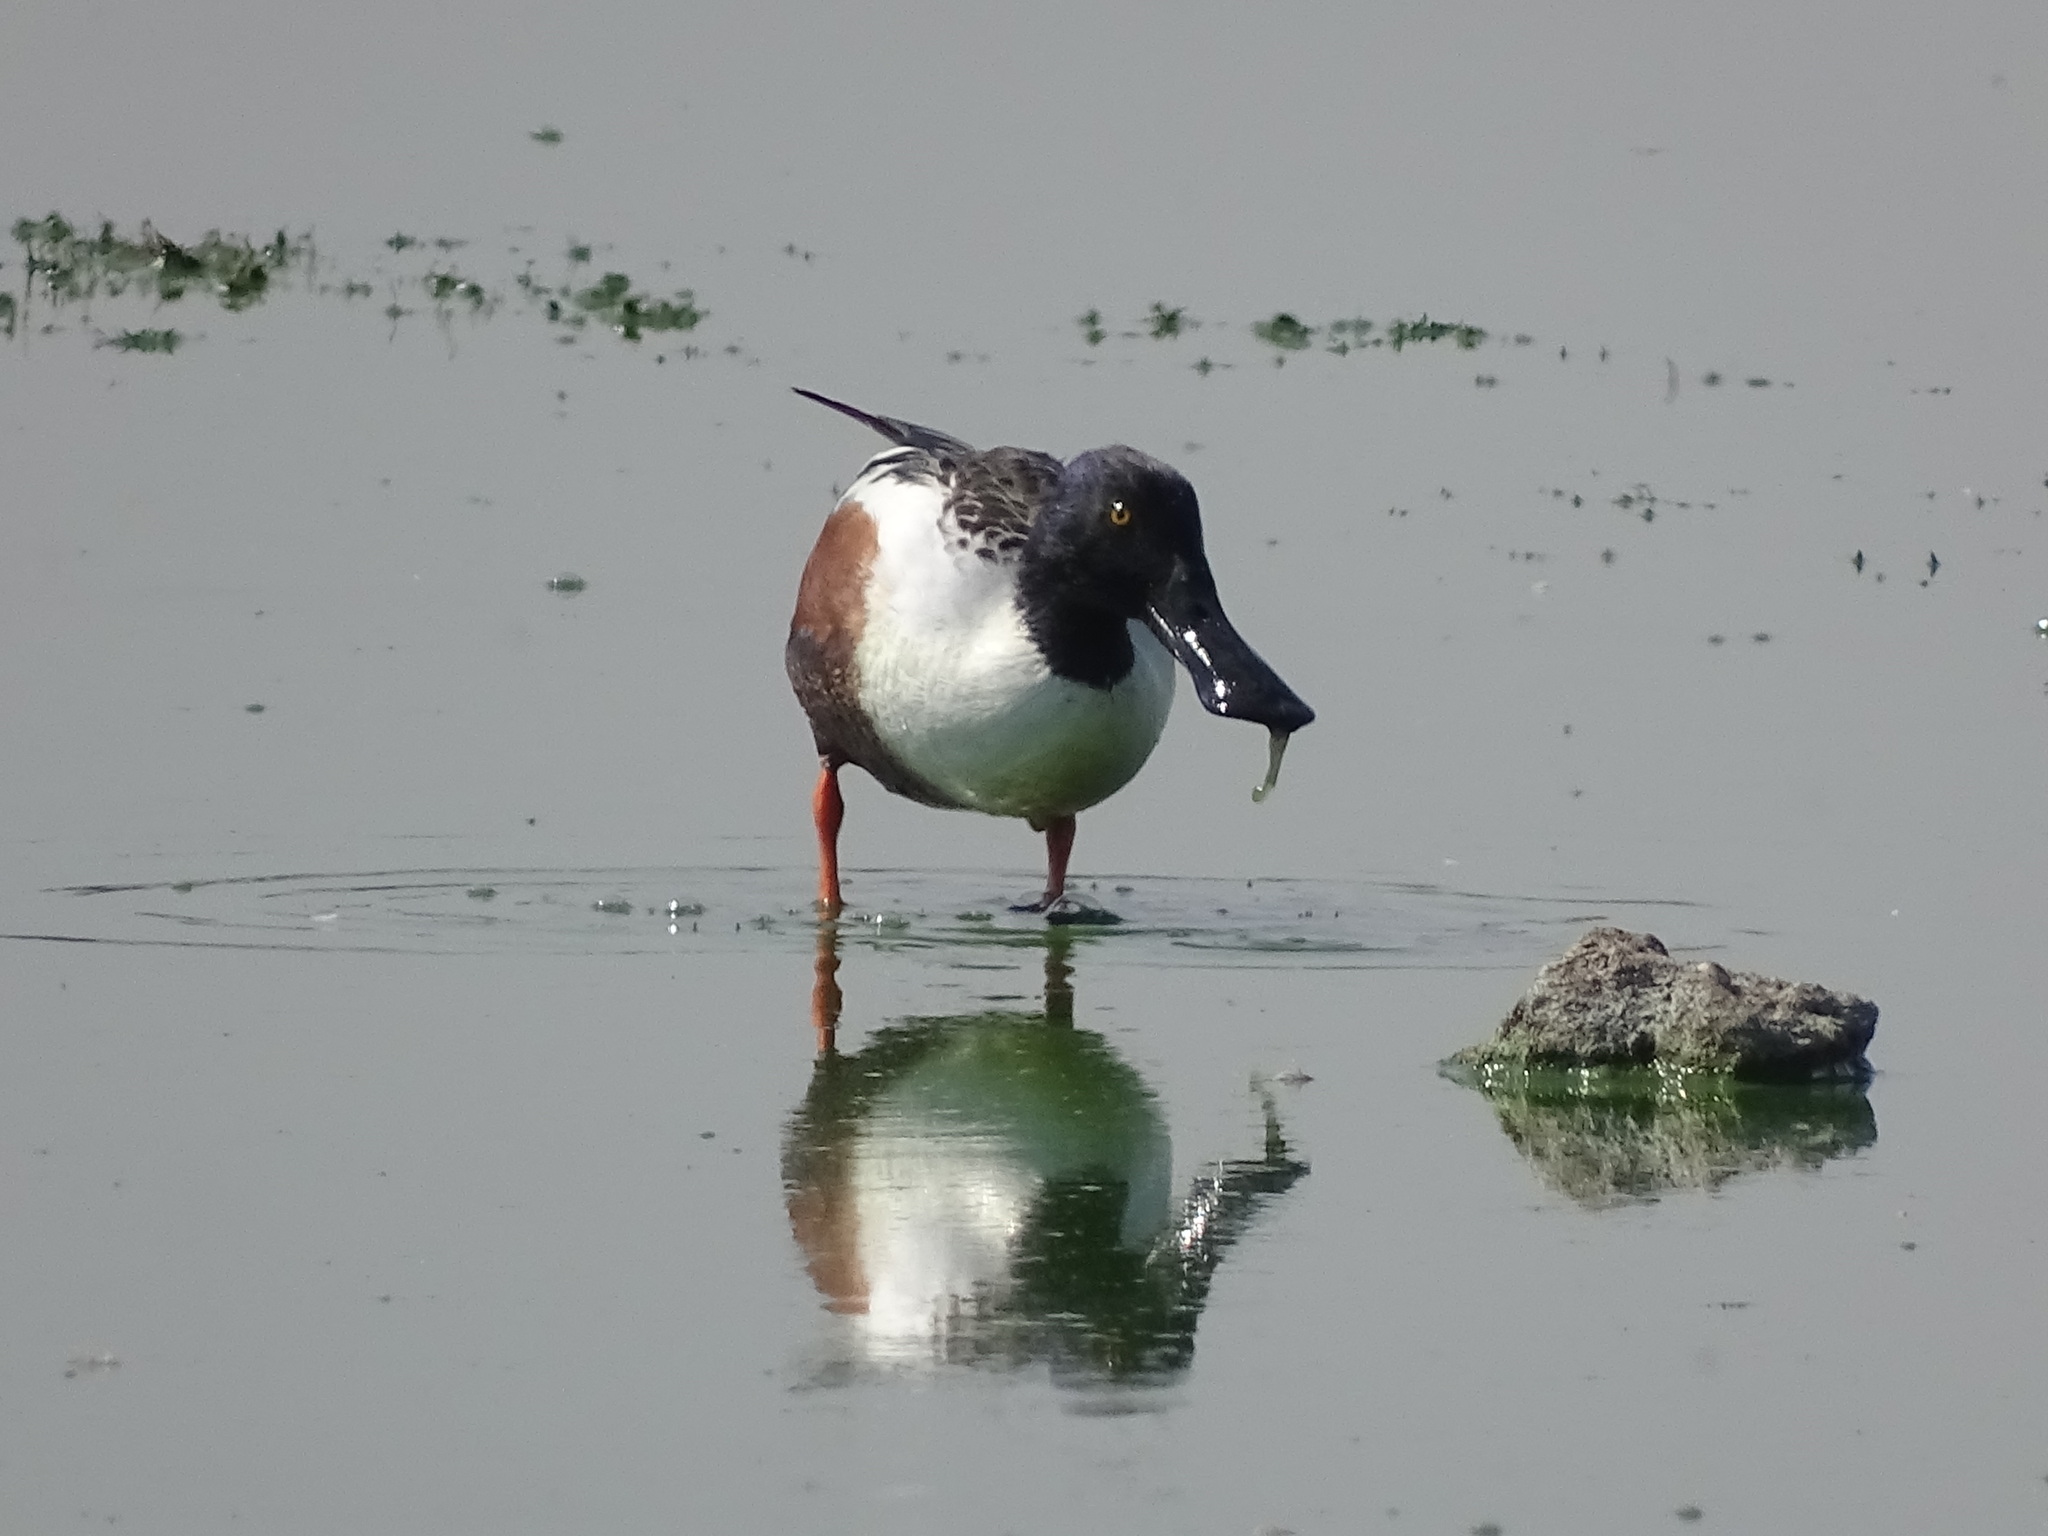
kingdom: Animalia
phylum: Chordata
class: Aves
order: Anseriformes
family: Anatidae
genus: Spatula
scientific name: Spatula clypeata
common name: Northern shoveler
